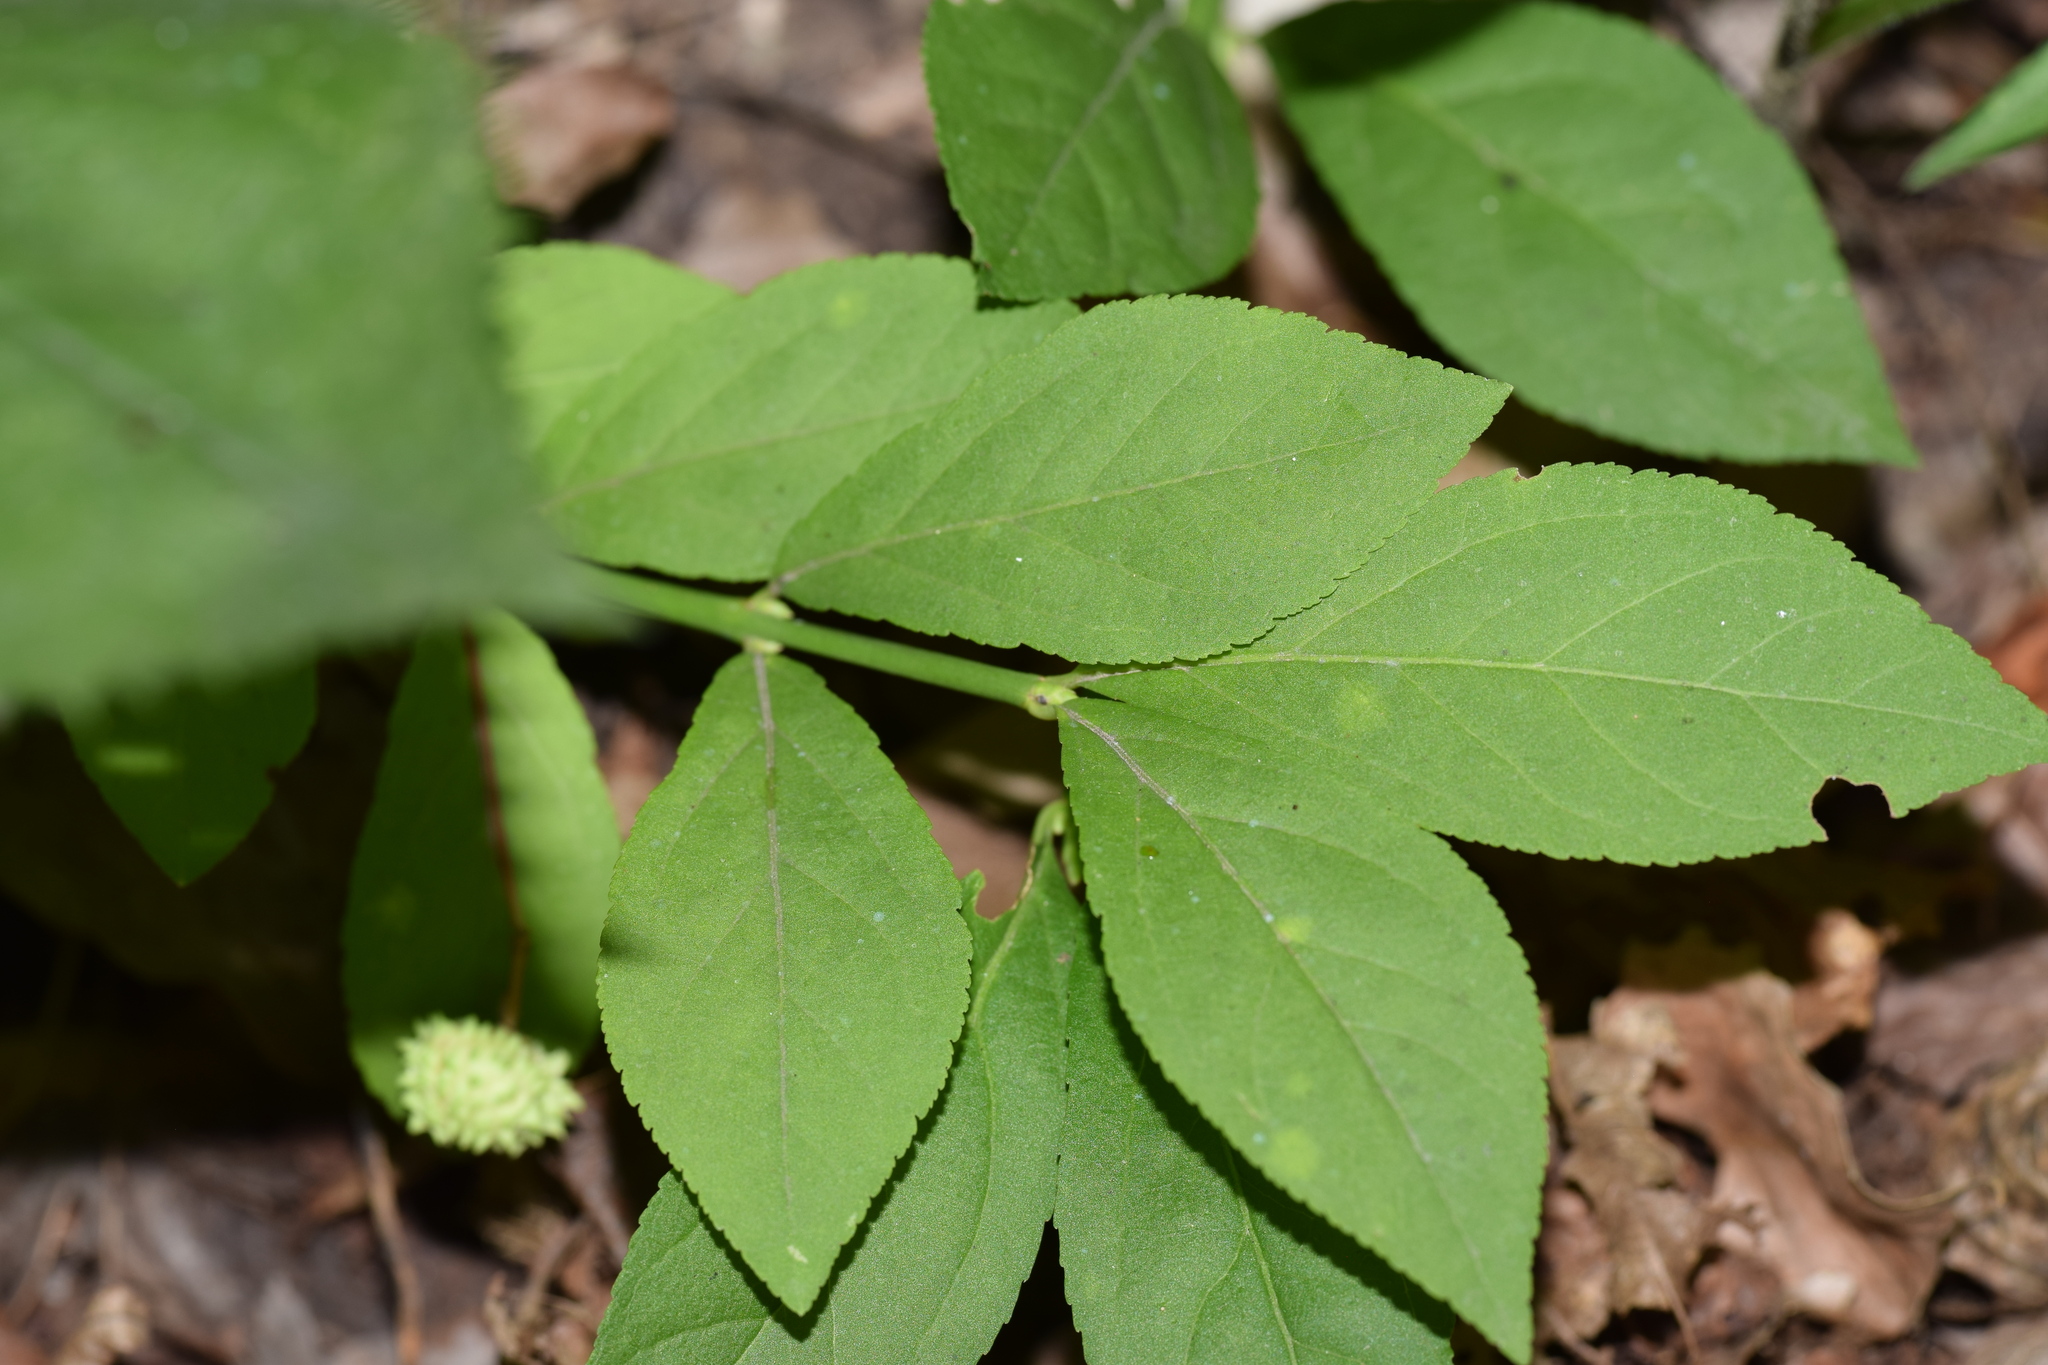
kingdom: Plantae
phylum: Tracheophyta
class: Magnoliopsida
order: Celastrales
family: Celastraceae
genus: Euonymus
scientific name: Euonymus obovatus
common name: Running strawberry-bush
